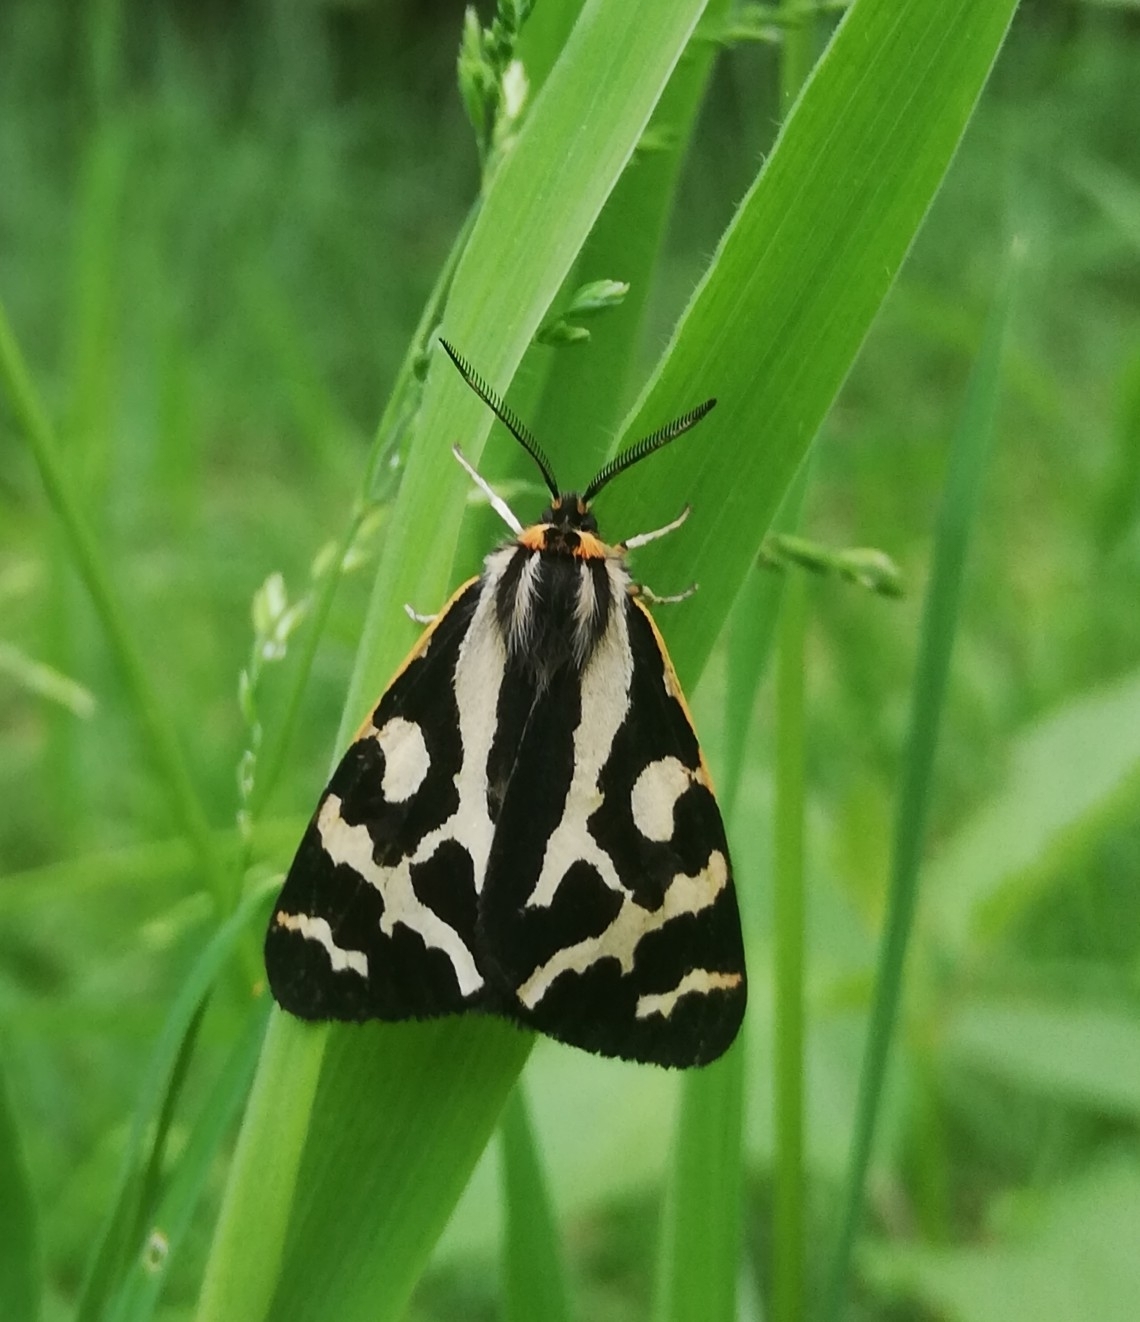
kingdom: Animalia
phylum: Arthropoda
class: Insecta
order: Lepidoptera
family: Erebidae
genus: Parasemia
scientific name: Parasemia plantaginis
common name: Wood tiger
